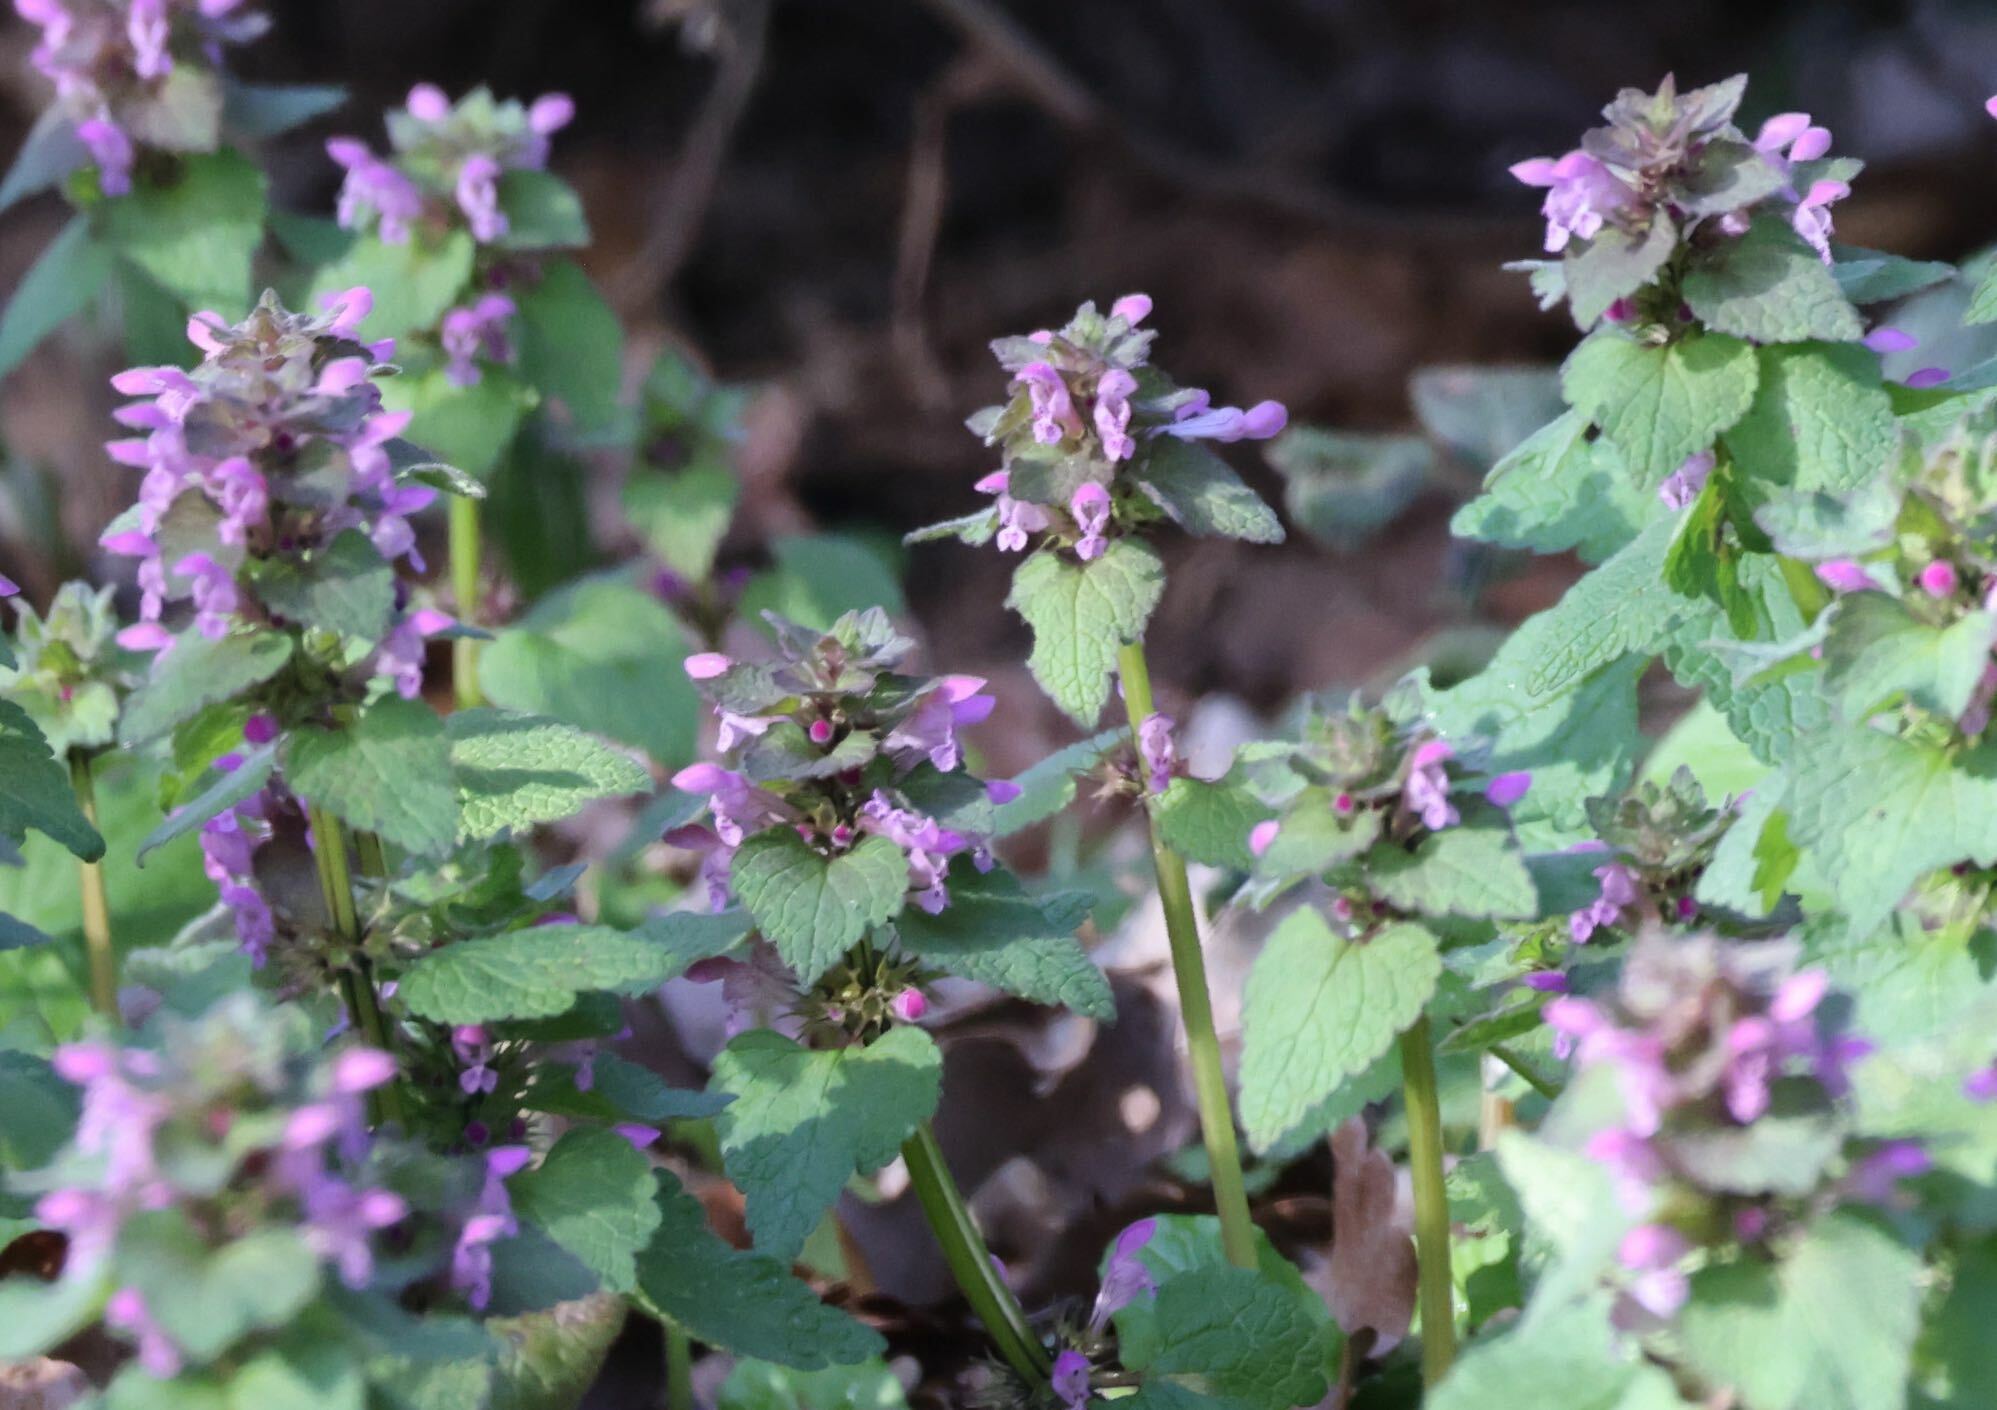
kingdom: Plantae
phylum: Tracheophyta
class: Magnoliopsida
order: Lamiales
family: Lamiaceae
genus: Lamium
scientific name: Lamium purpureum
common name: Red dead-nettle
